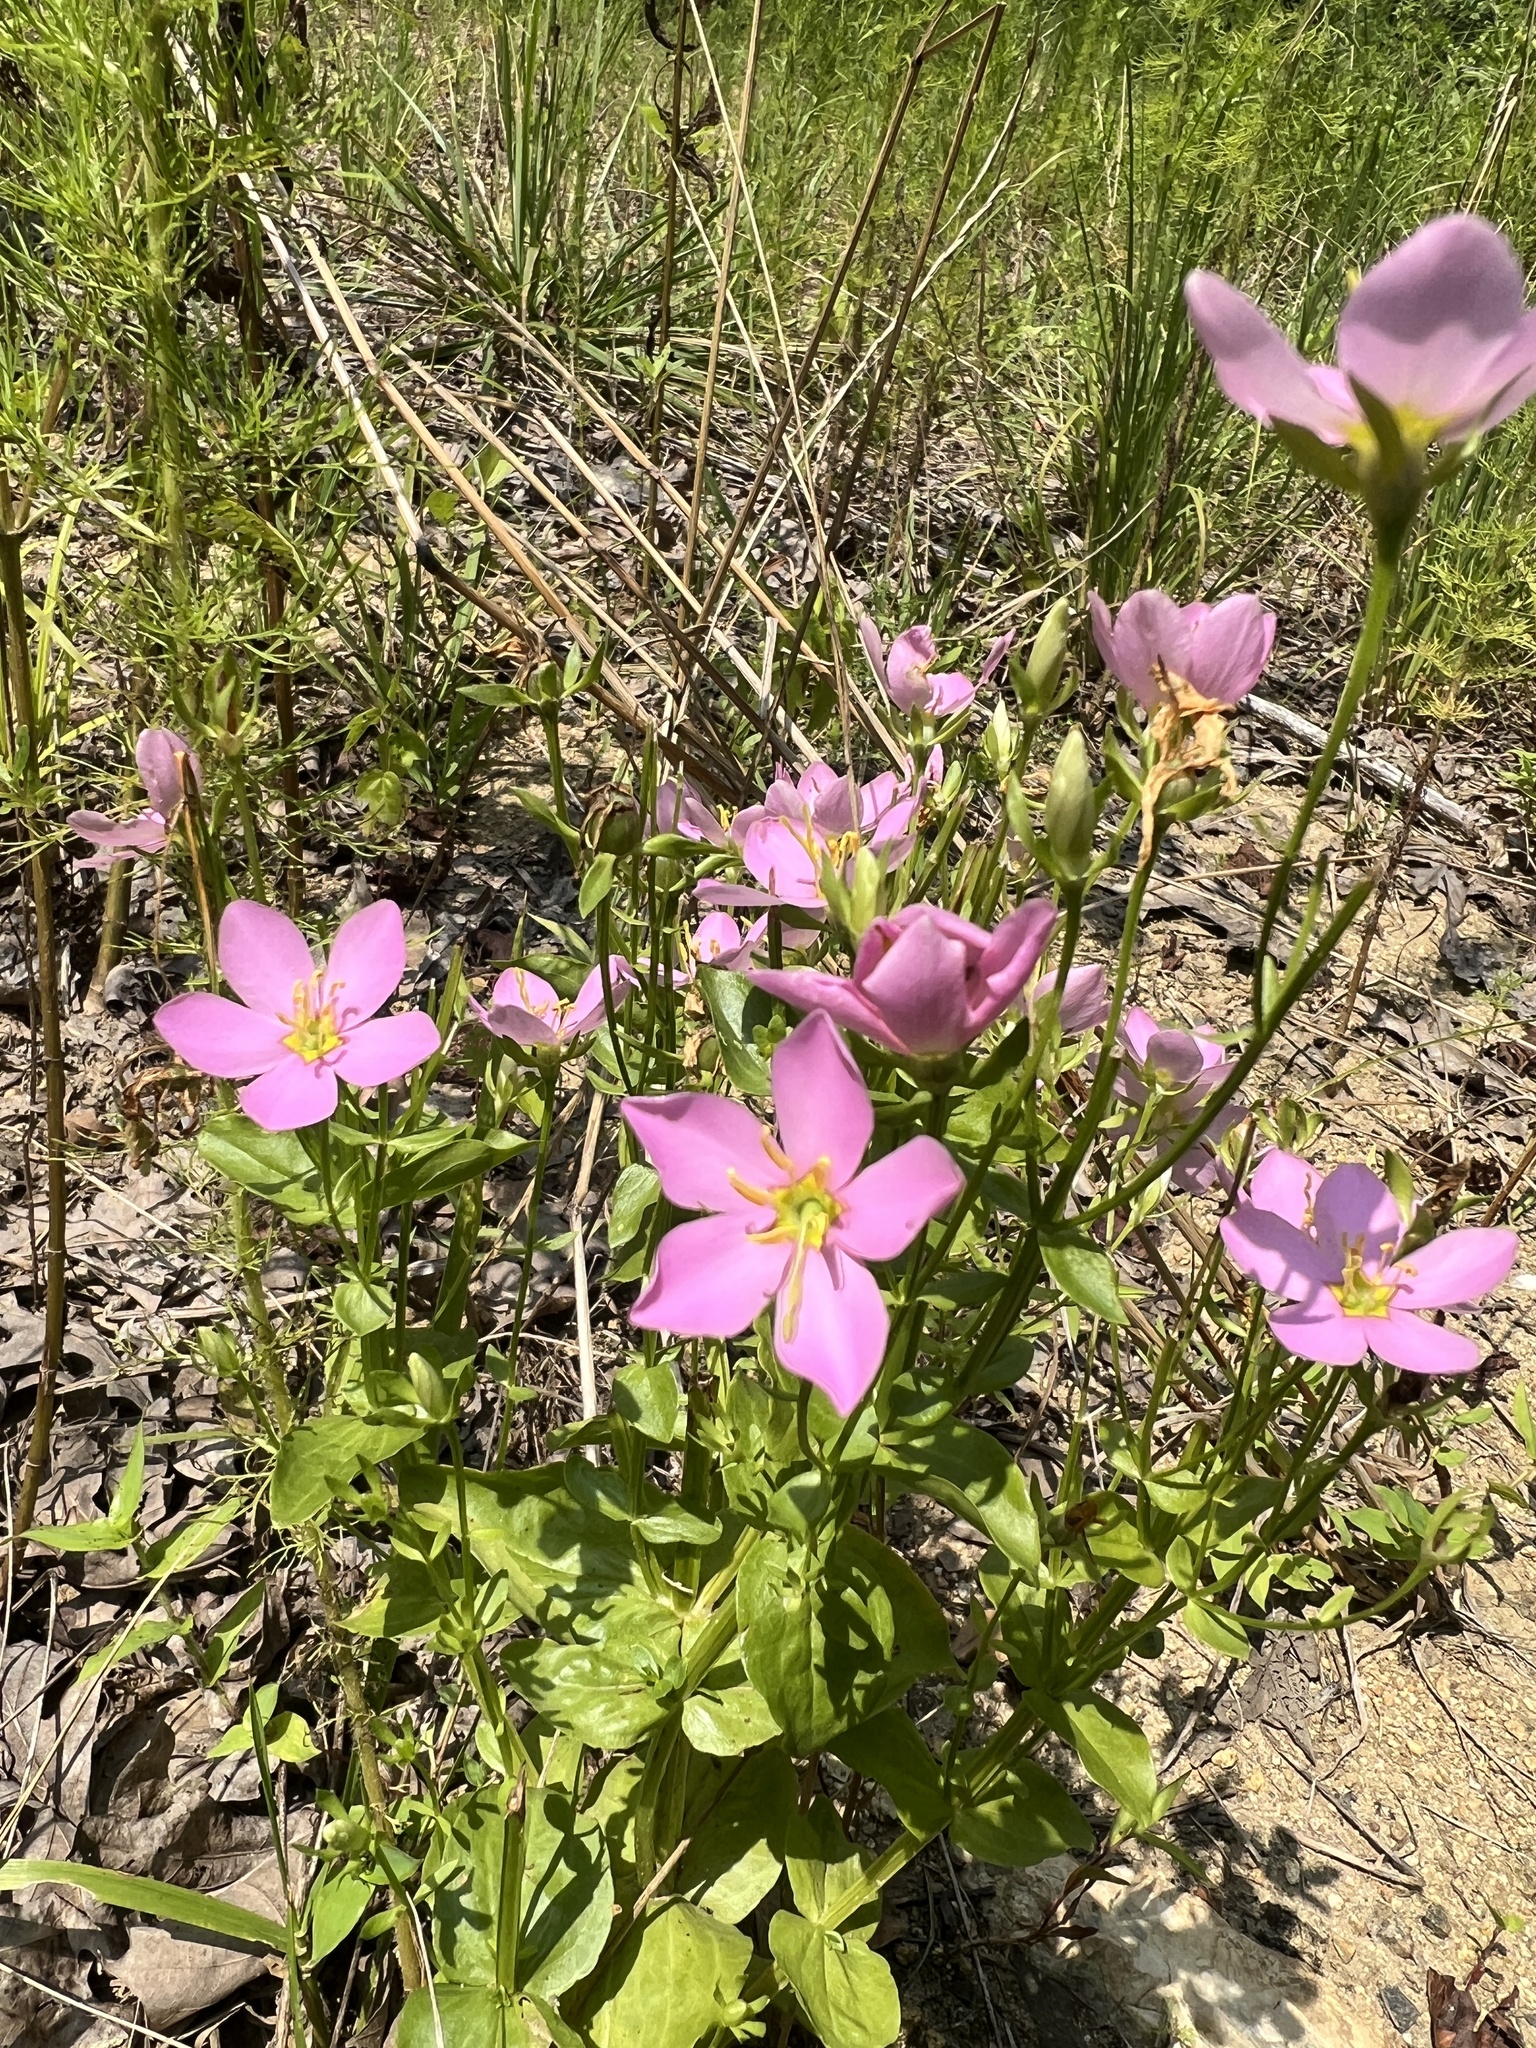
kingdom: Plantae
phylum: Tracheophyta
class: Magnoliopsida
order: Gentianales
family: Gentianaceae
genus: Sabatia
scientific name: Sabatia angularis
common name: Rose-pink
